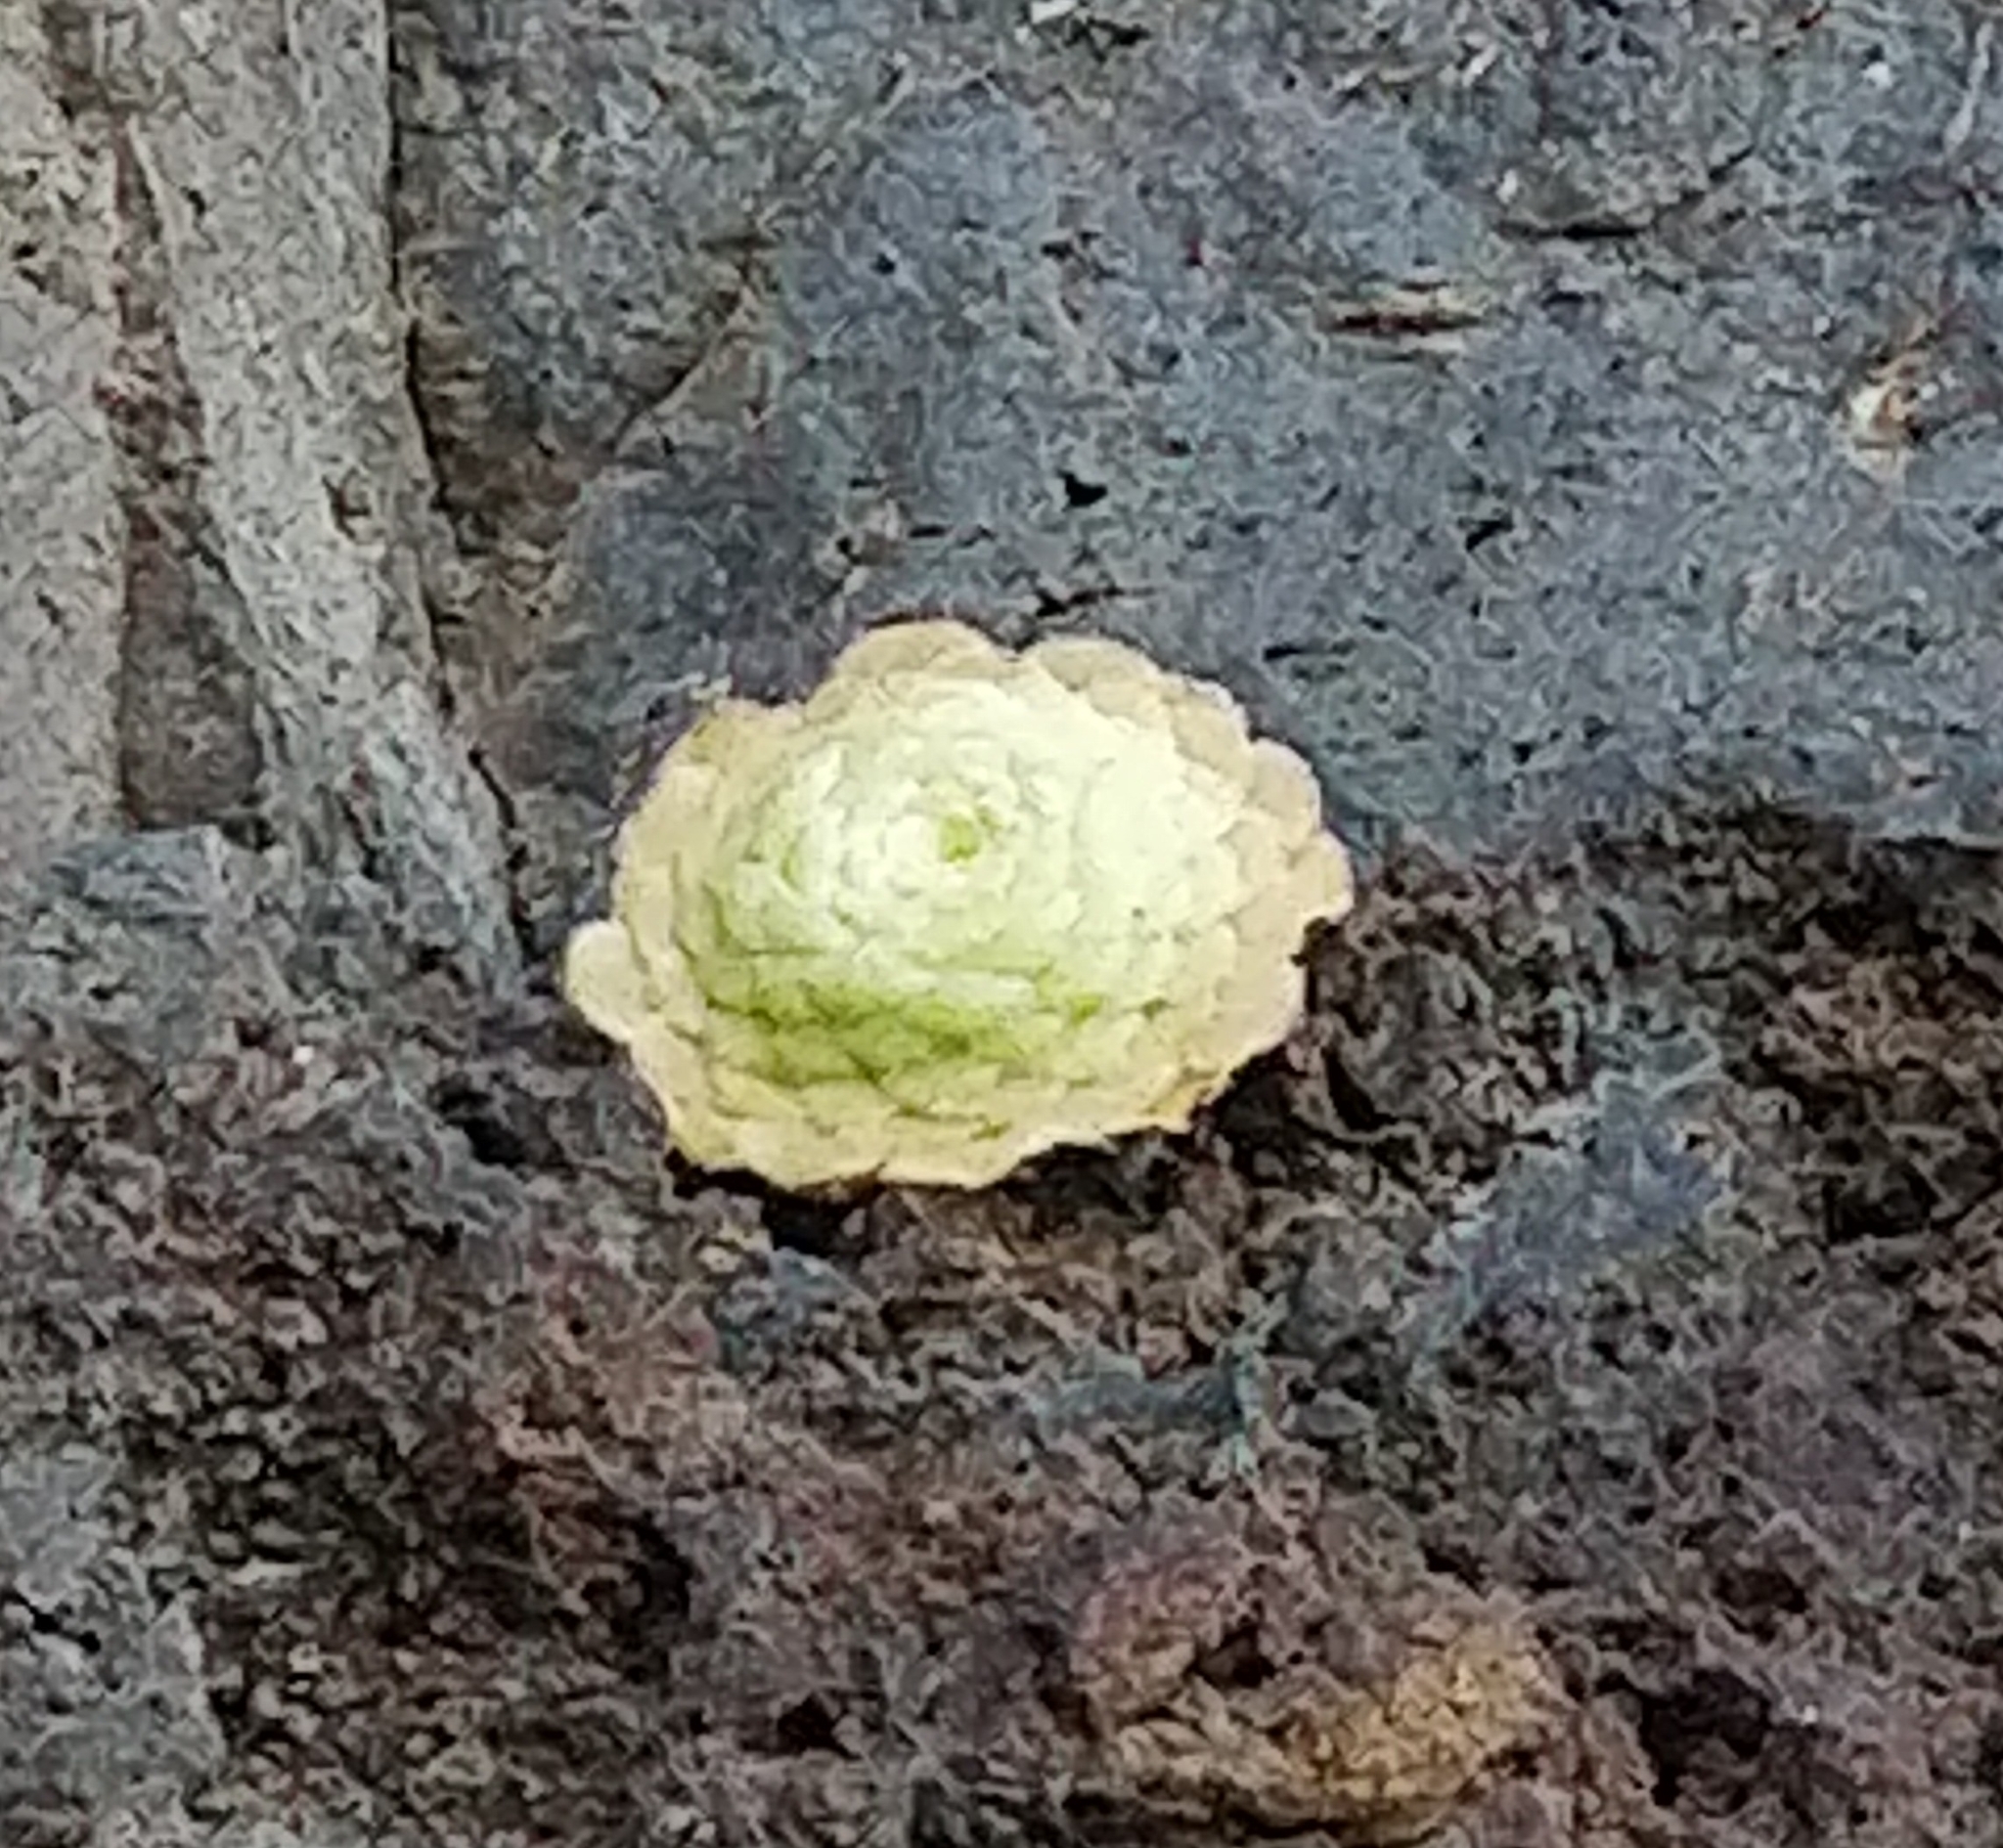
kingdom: Plantae
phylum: Tracheophyta
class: Magnoliopsida
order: Saxifragales
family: Crassulaceae
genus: Aeonium
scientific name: Aeonium tabulaeforme
